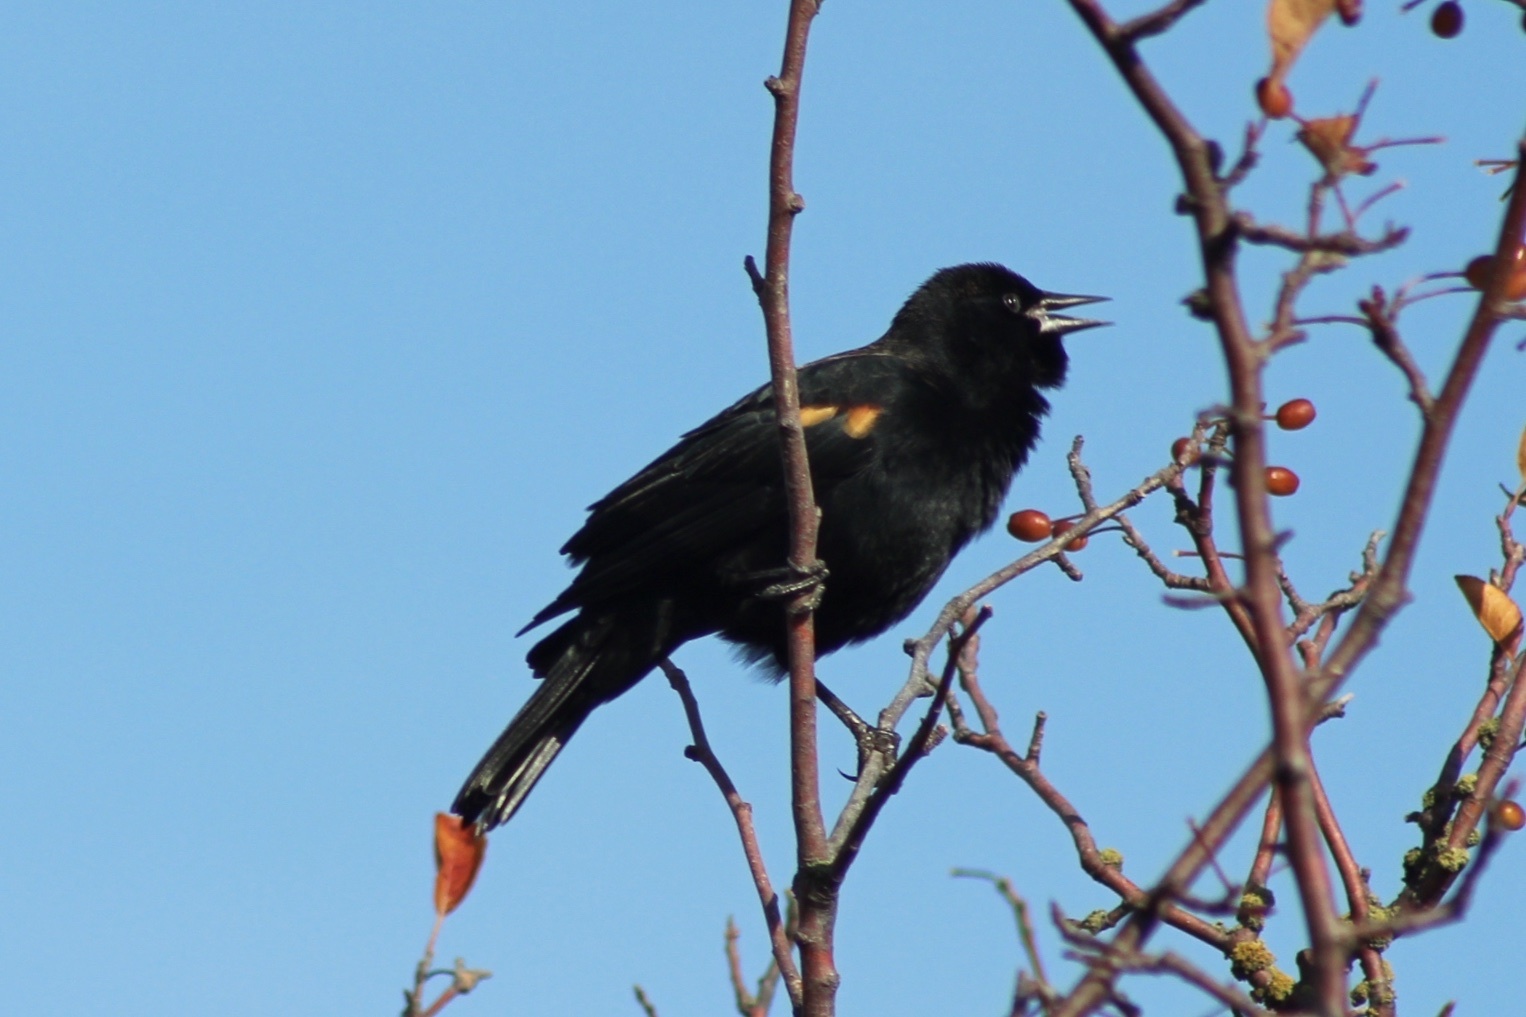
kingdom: Animalia
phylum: Chordata
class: Aves
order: Passeriformes
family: Icteridae
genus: Agelaius
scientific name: Agelaius phoeniceus
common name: Red-winged blackbird
